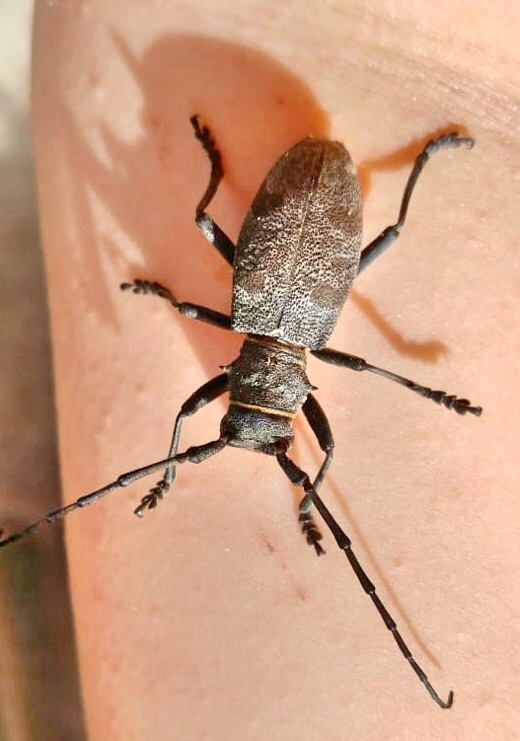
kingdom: Animalia
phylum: Arthropoda
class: Insecta
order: Coleoptera
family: Cerambycidae
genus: Morimus
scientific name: Morimus asper
